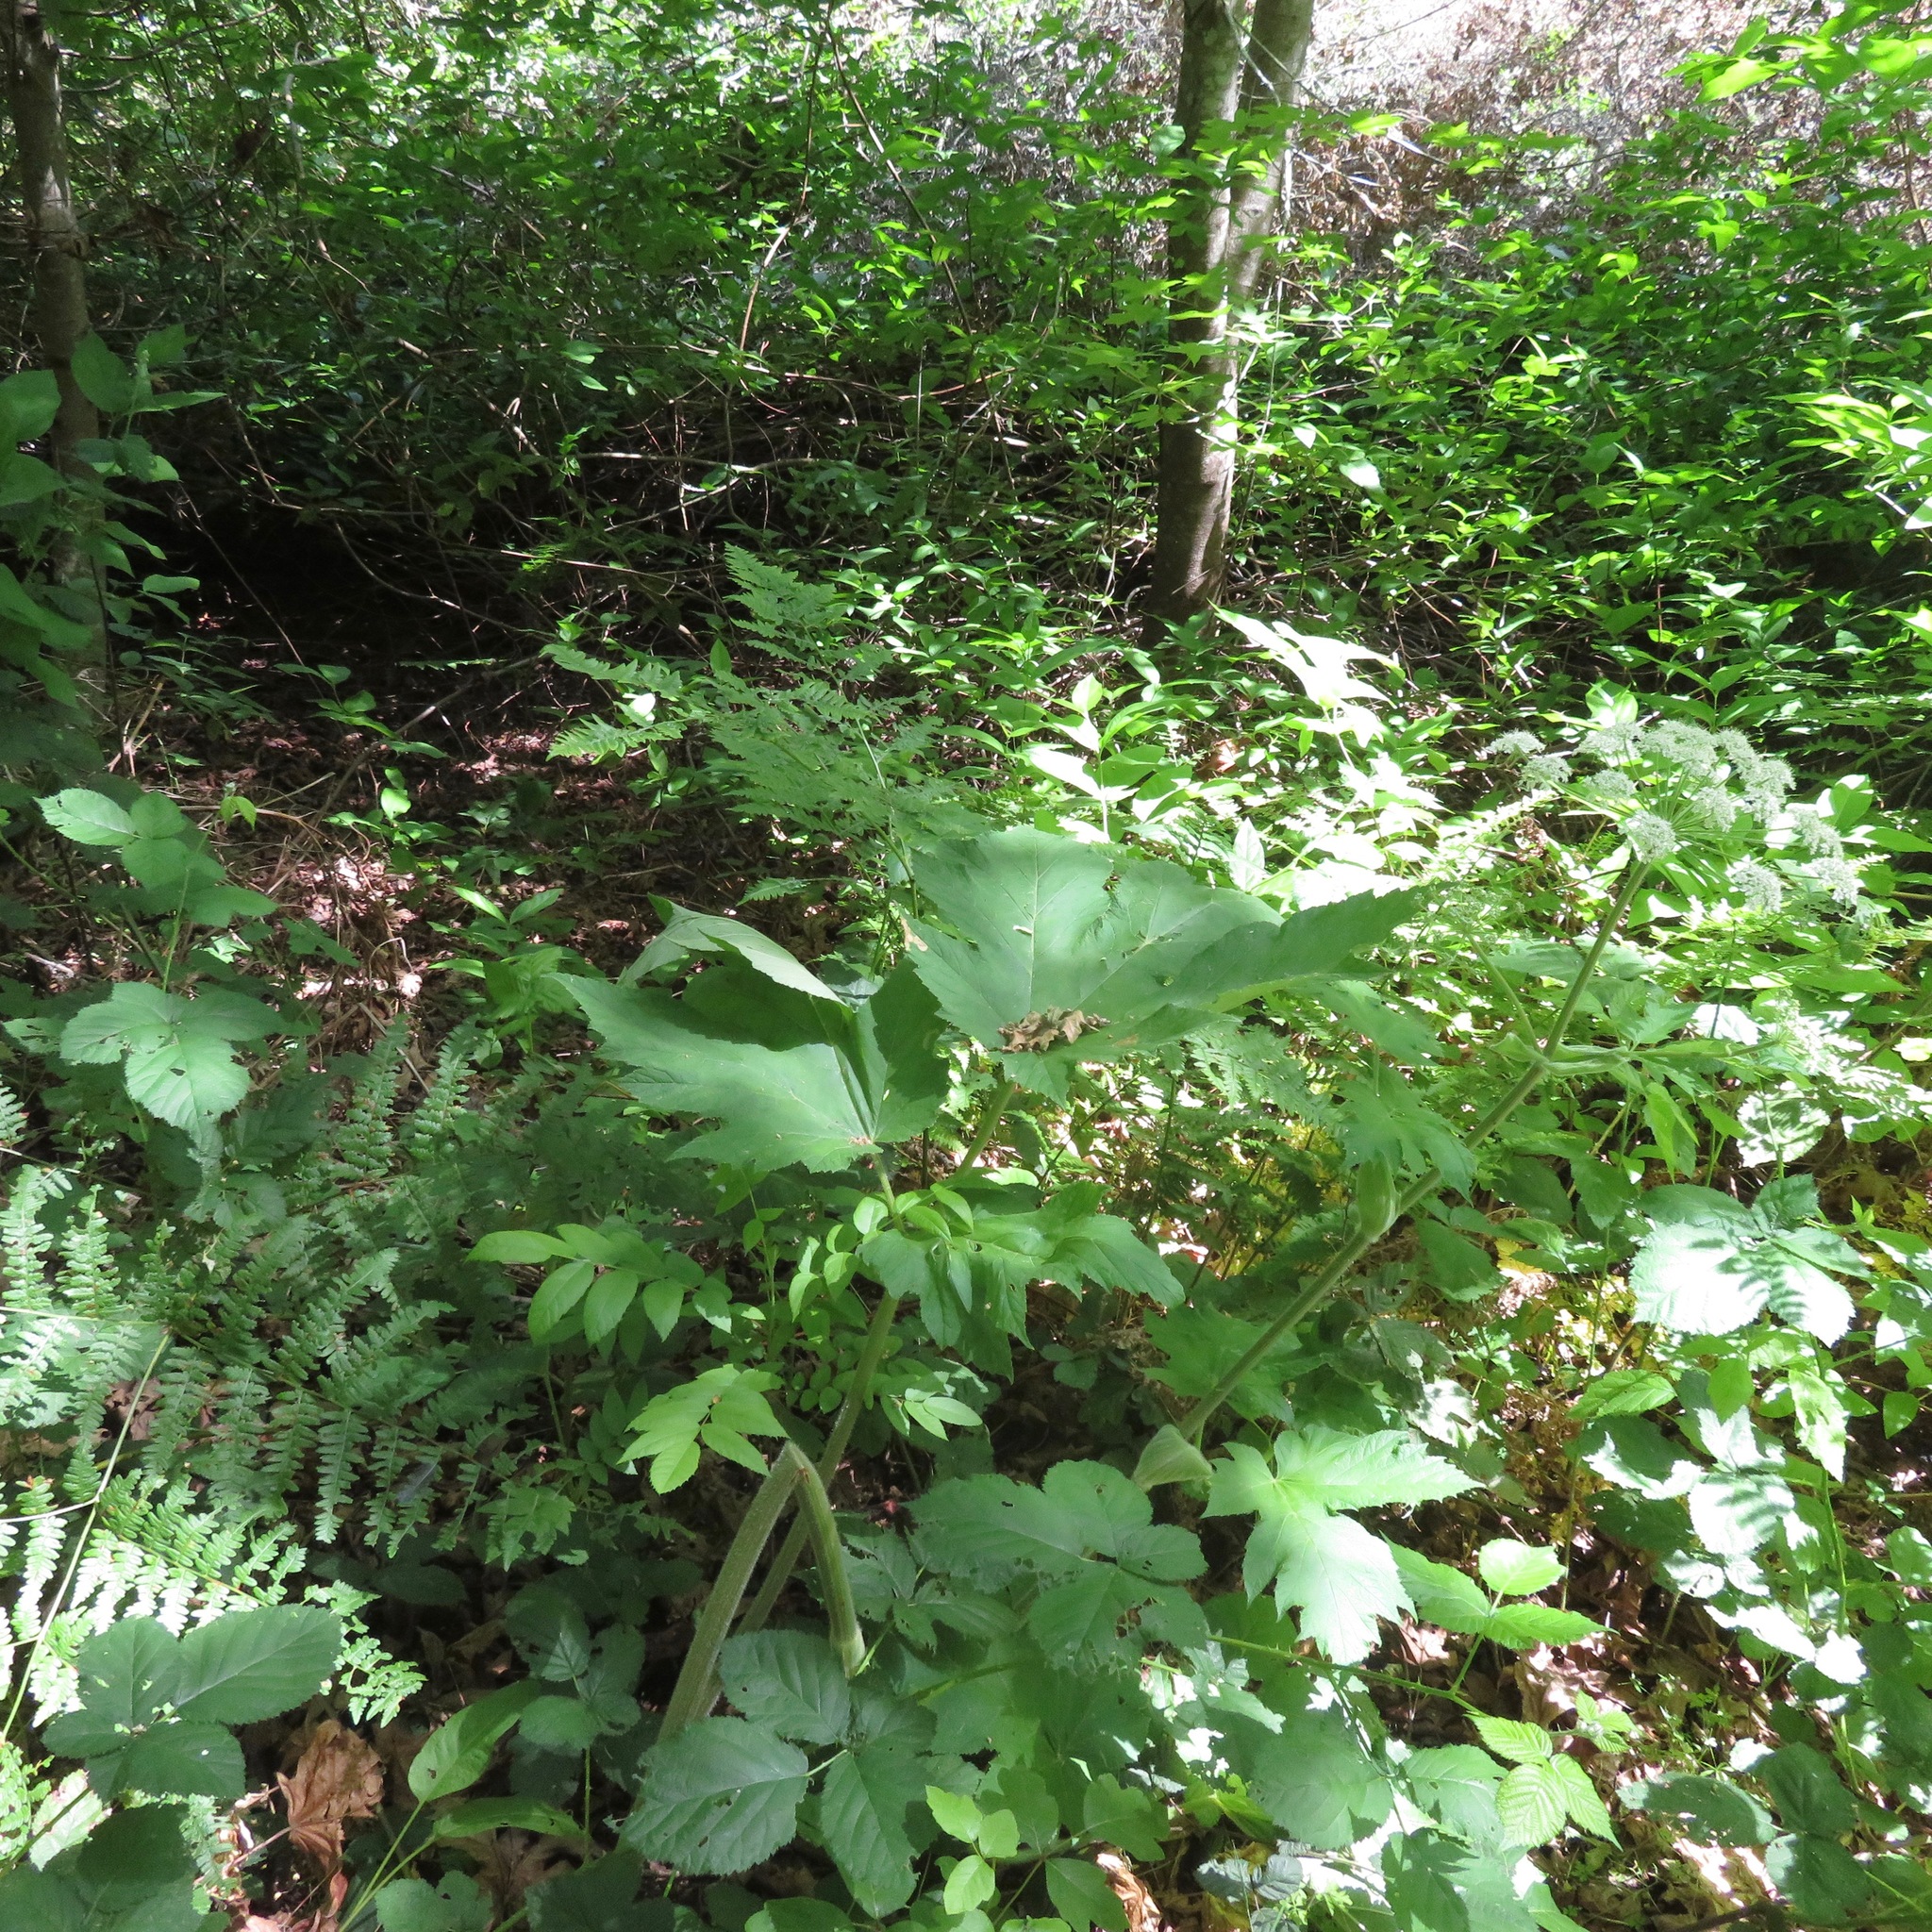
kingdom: Plantae
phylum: Tracheophyta
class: Magnoliopsida
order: Apiales
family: Apiaceae
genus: Heracleum
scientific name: Heracleum maximum
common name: American cow parsnip
